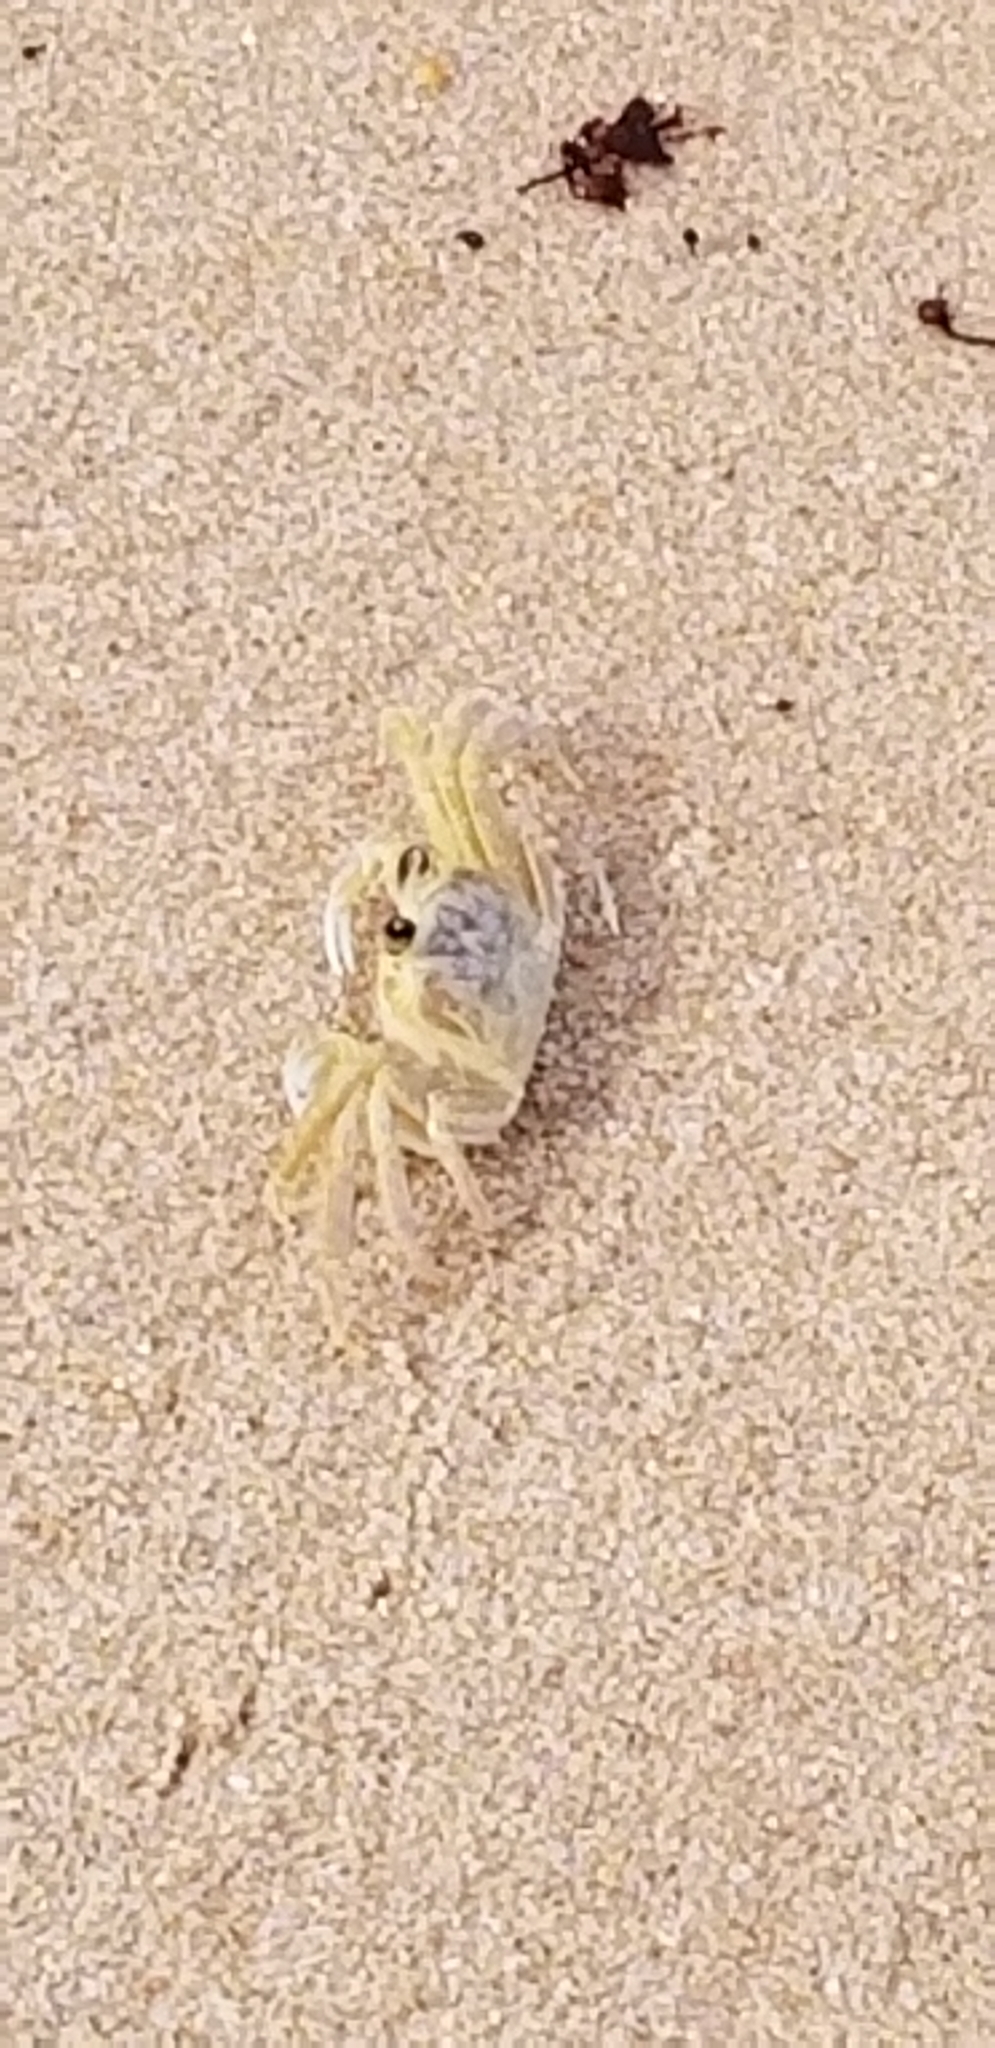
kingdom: Animalia
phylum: Arthropoda
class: Malacostraca
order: Decapoda
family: Ocypodidae
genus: Ocypode
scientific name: Ocypode quadrata
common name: Ghost crab
